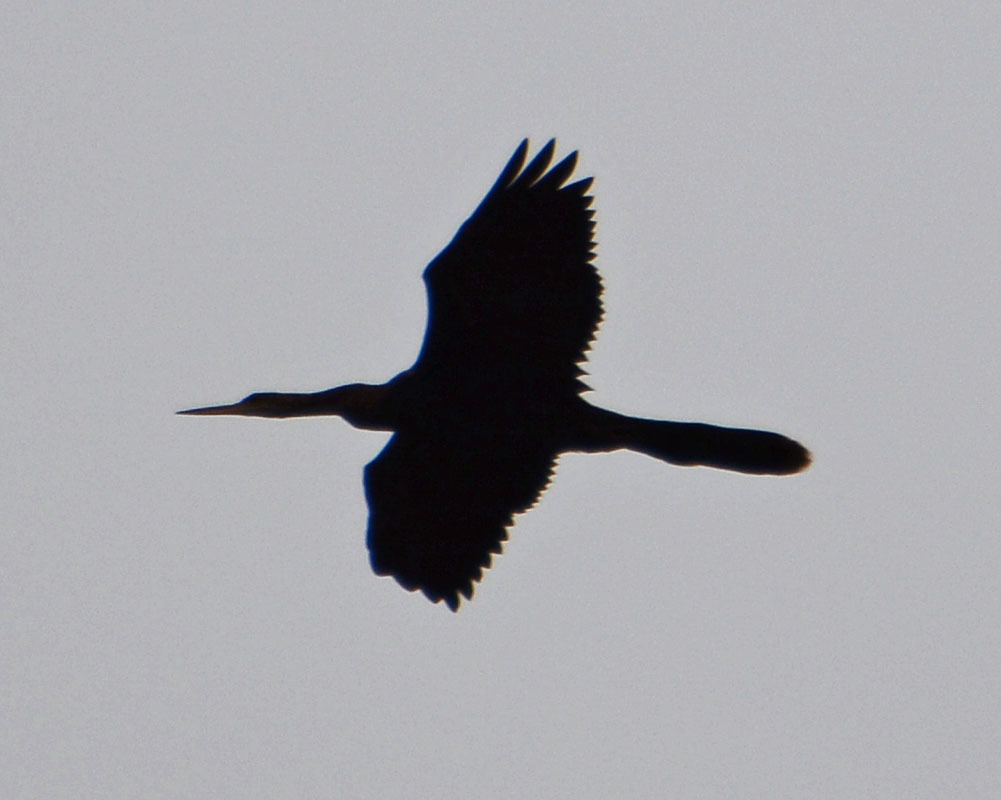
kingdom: Animalia
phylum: Chordata
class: Aves
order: Suliformes
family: Anhingidae
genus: Anhinga
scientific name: Anhinga anhinga
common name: Anhinga
